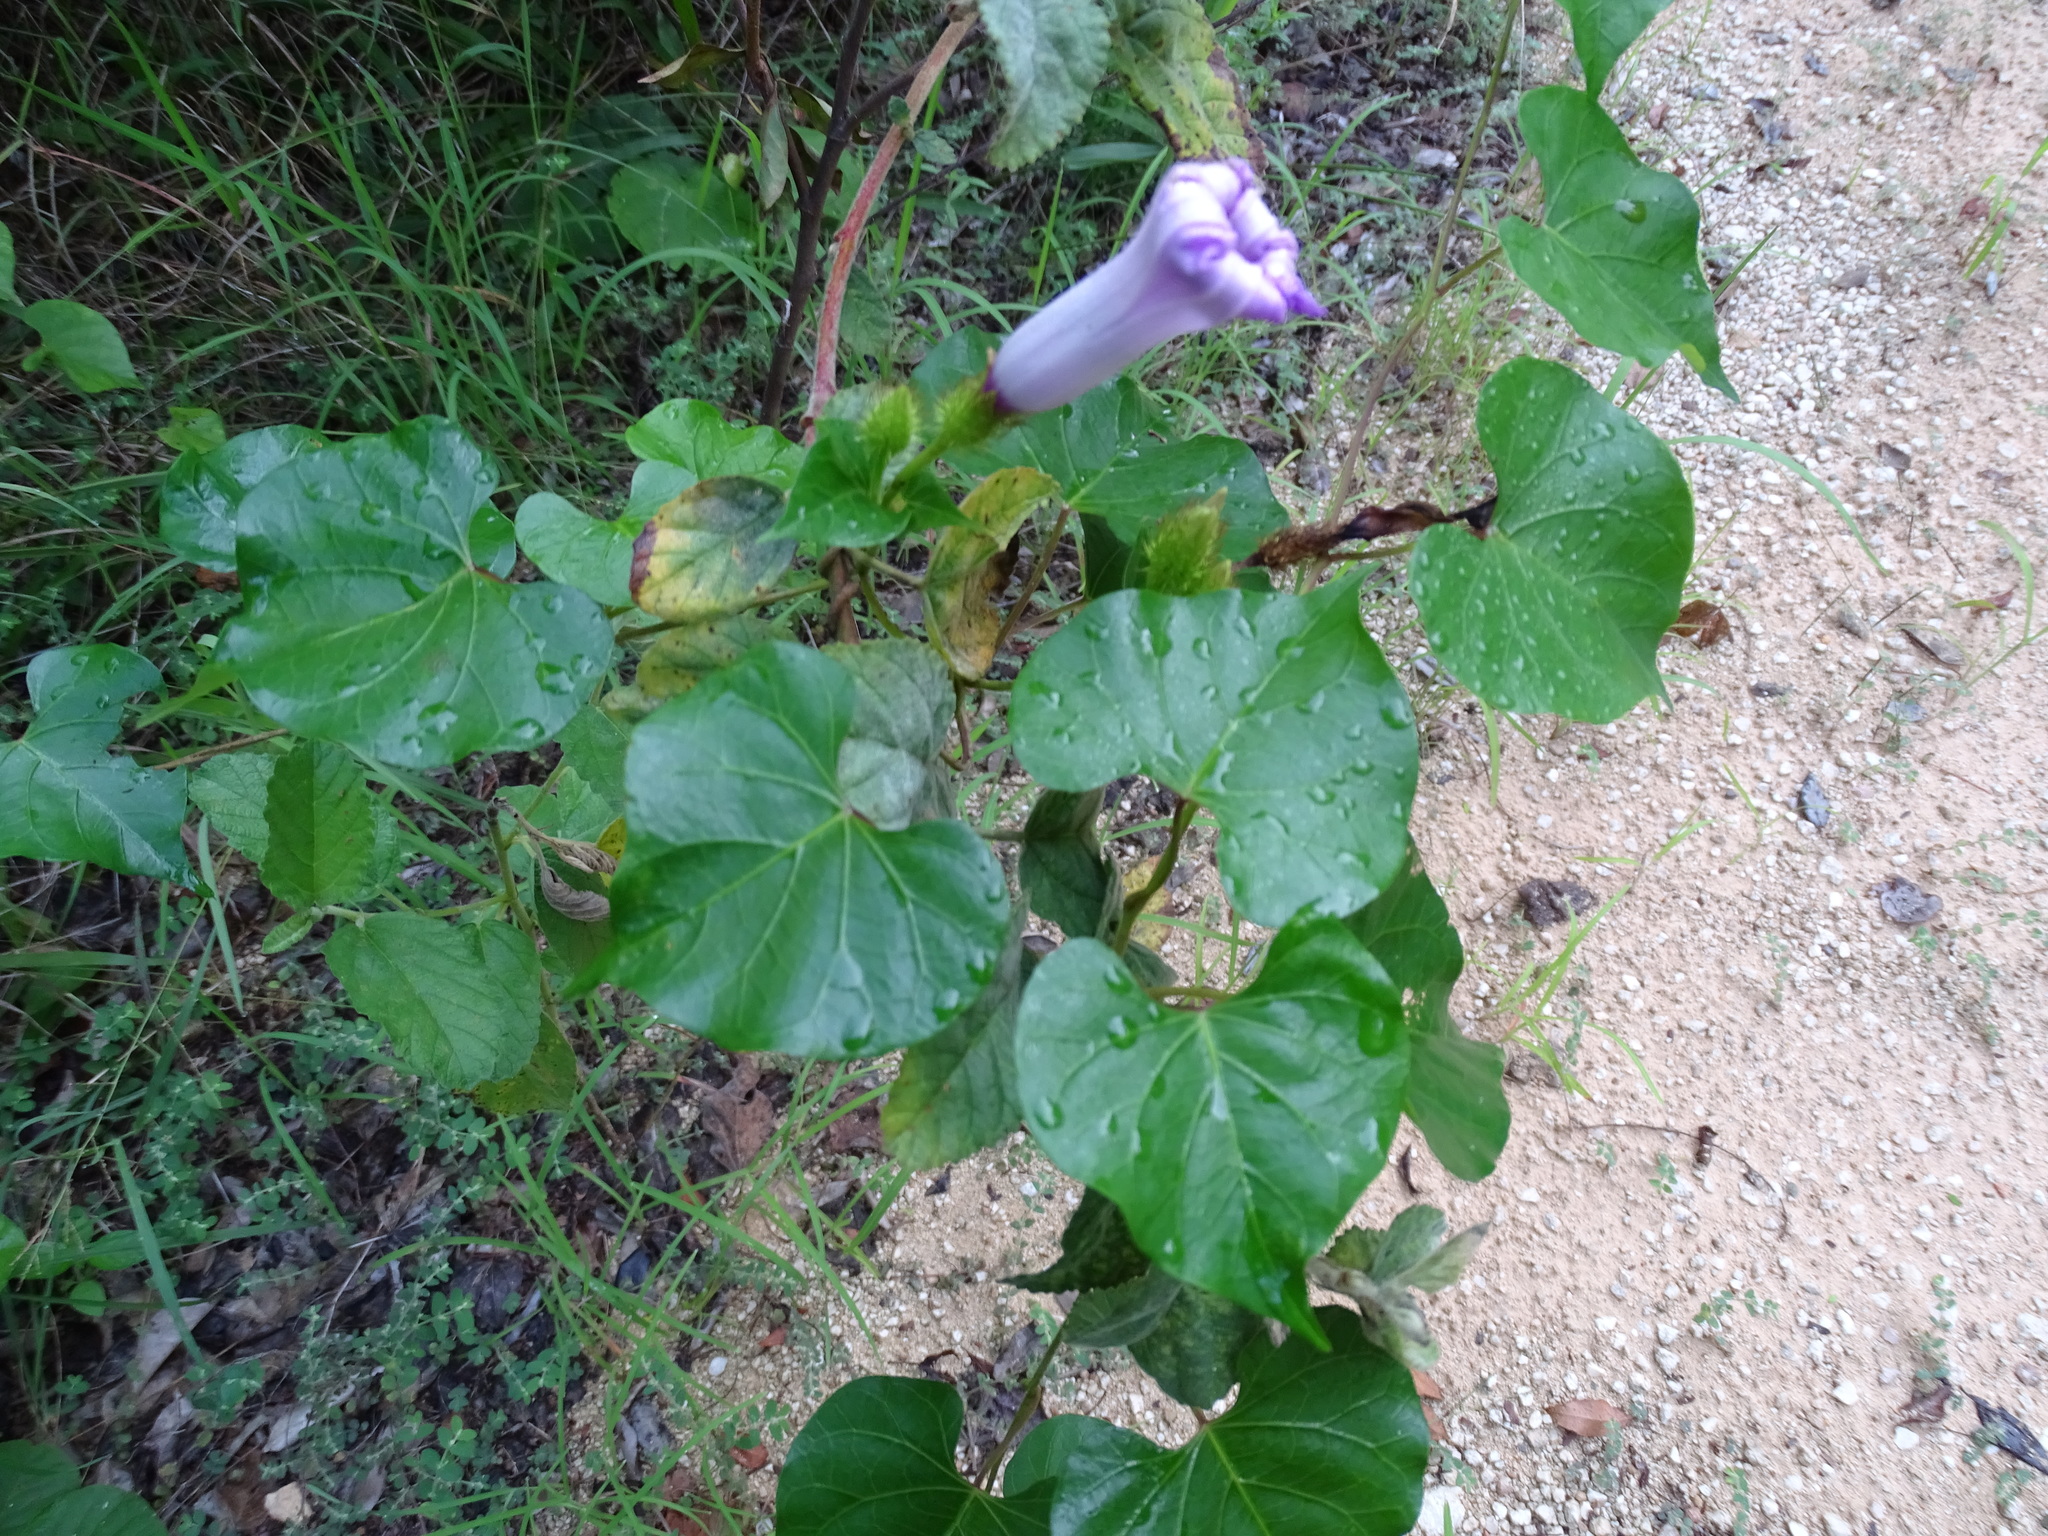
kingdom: Plantae
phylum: Tracheophyta
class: Magnoliopsida
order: Solanales
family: Convolvulaceae
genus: Ipomoea
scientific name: Ipomoea crinicalyx
